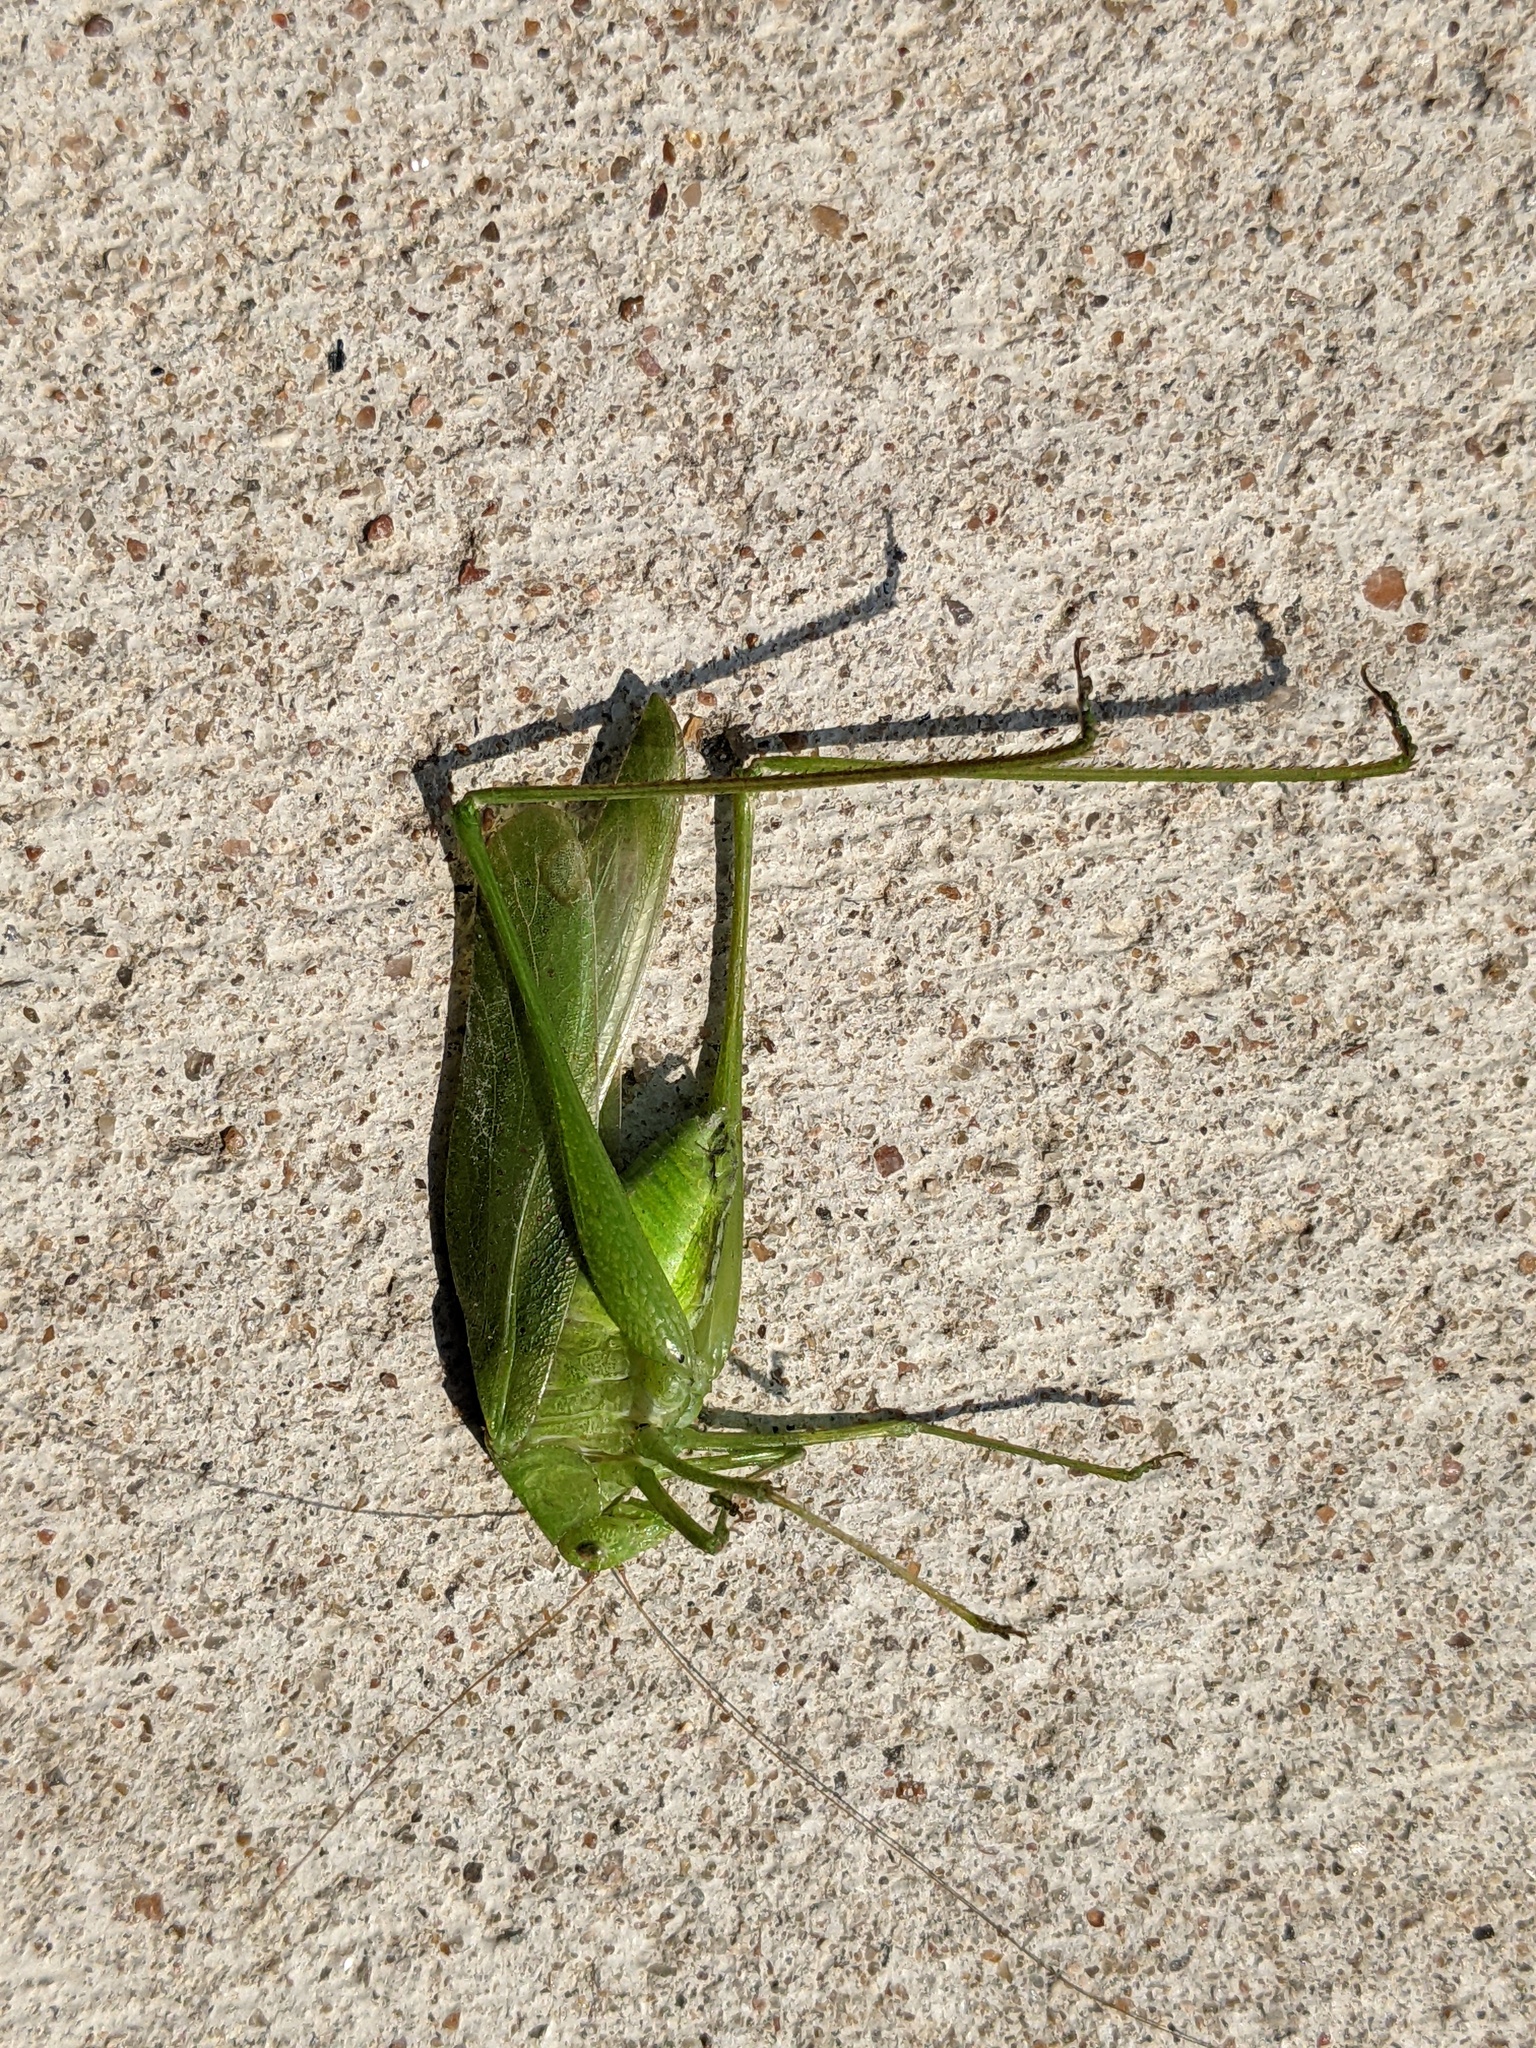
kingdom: Animalia
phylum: Arthropoda
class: Insecta
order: Orthoptera
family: Tettigoniidae
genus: Amblycorypha
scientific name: Amblycorypha oblongifolia
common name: Oblong-winged katydid
